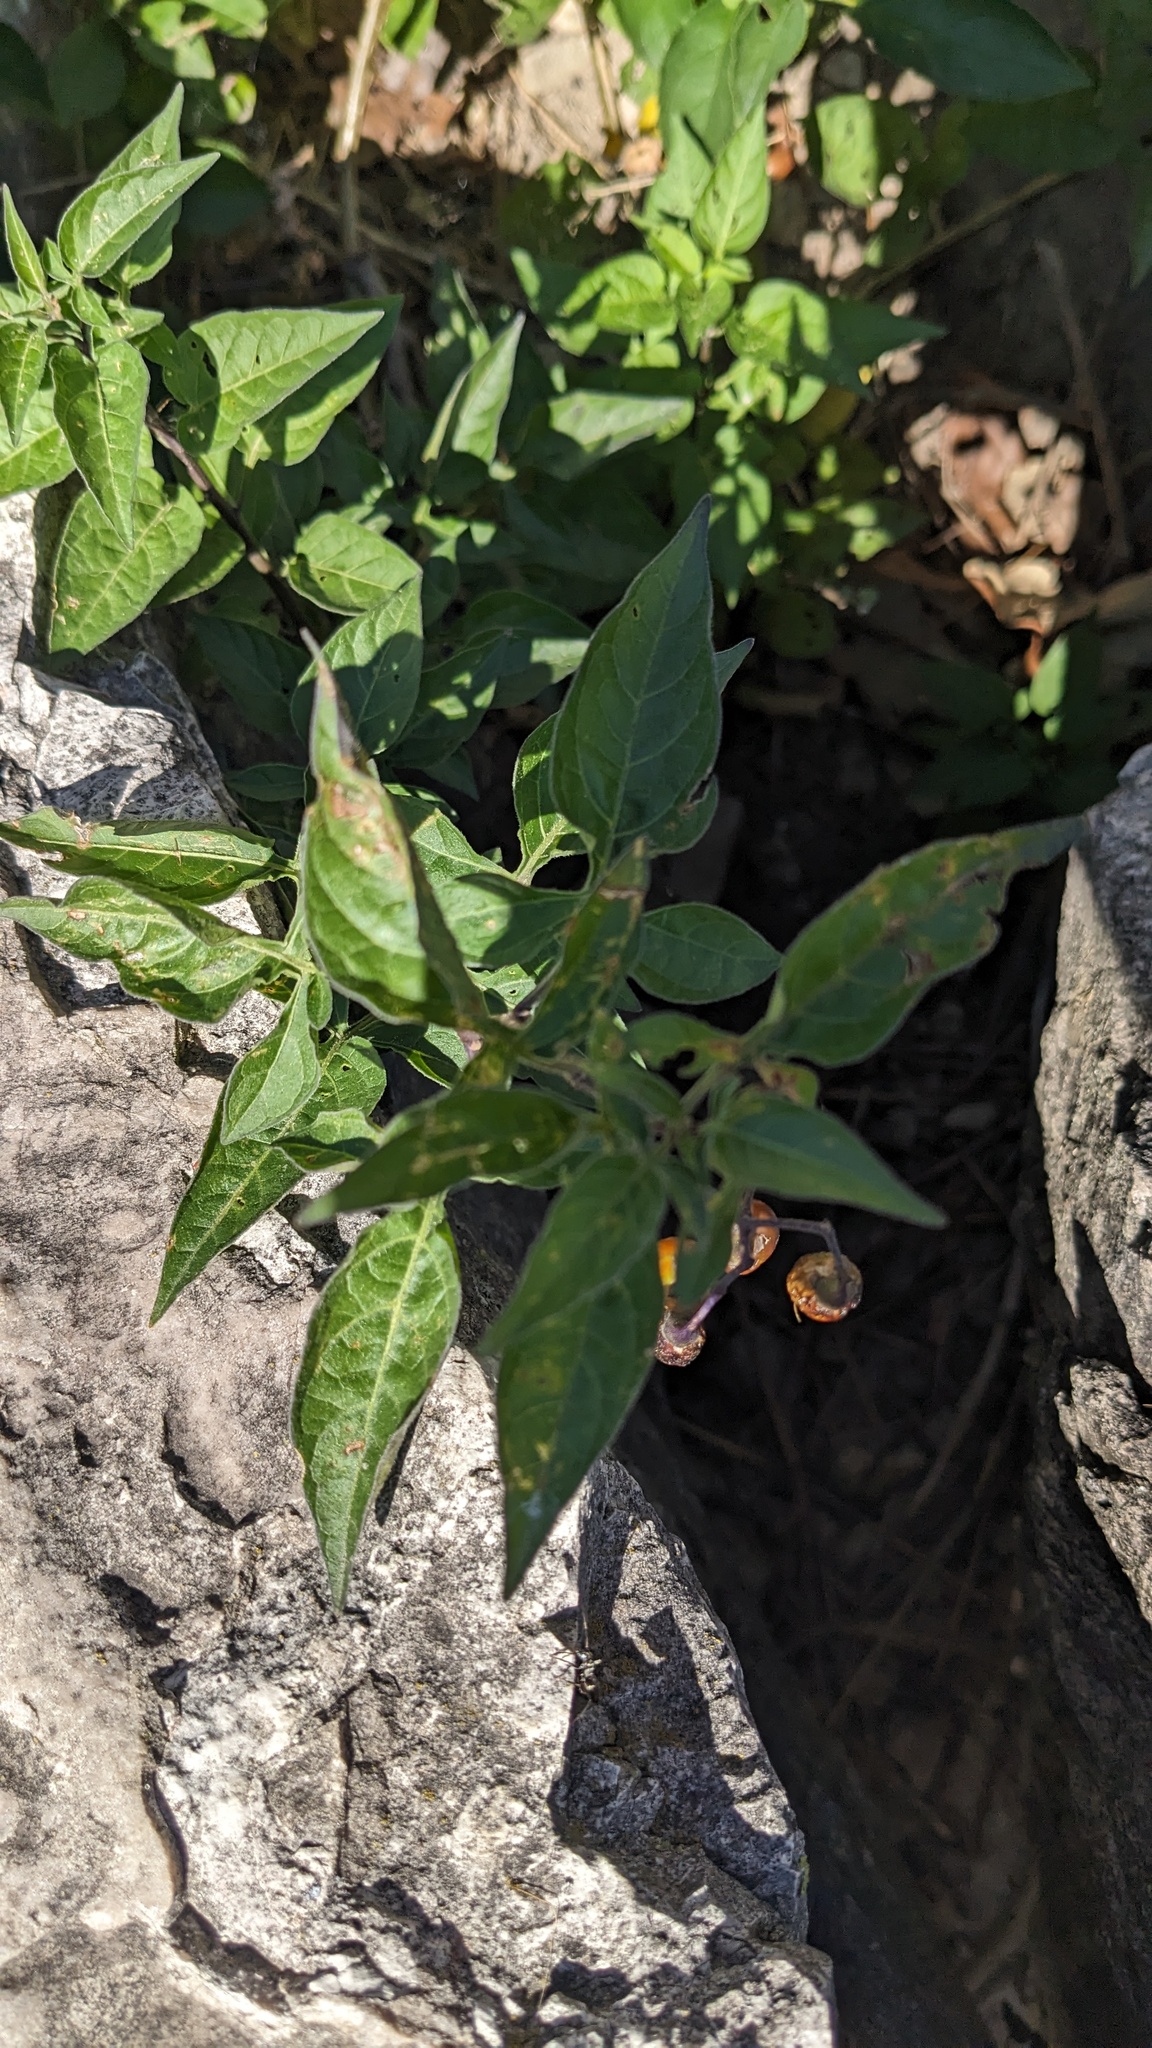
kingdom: Plantae
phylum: Tracheophyta
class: Magnoliopsida
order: Solanales
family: Solanaceae
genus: Solanum
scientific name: Solanum dulcamara
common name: Climbing nightshade
